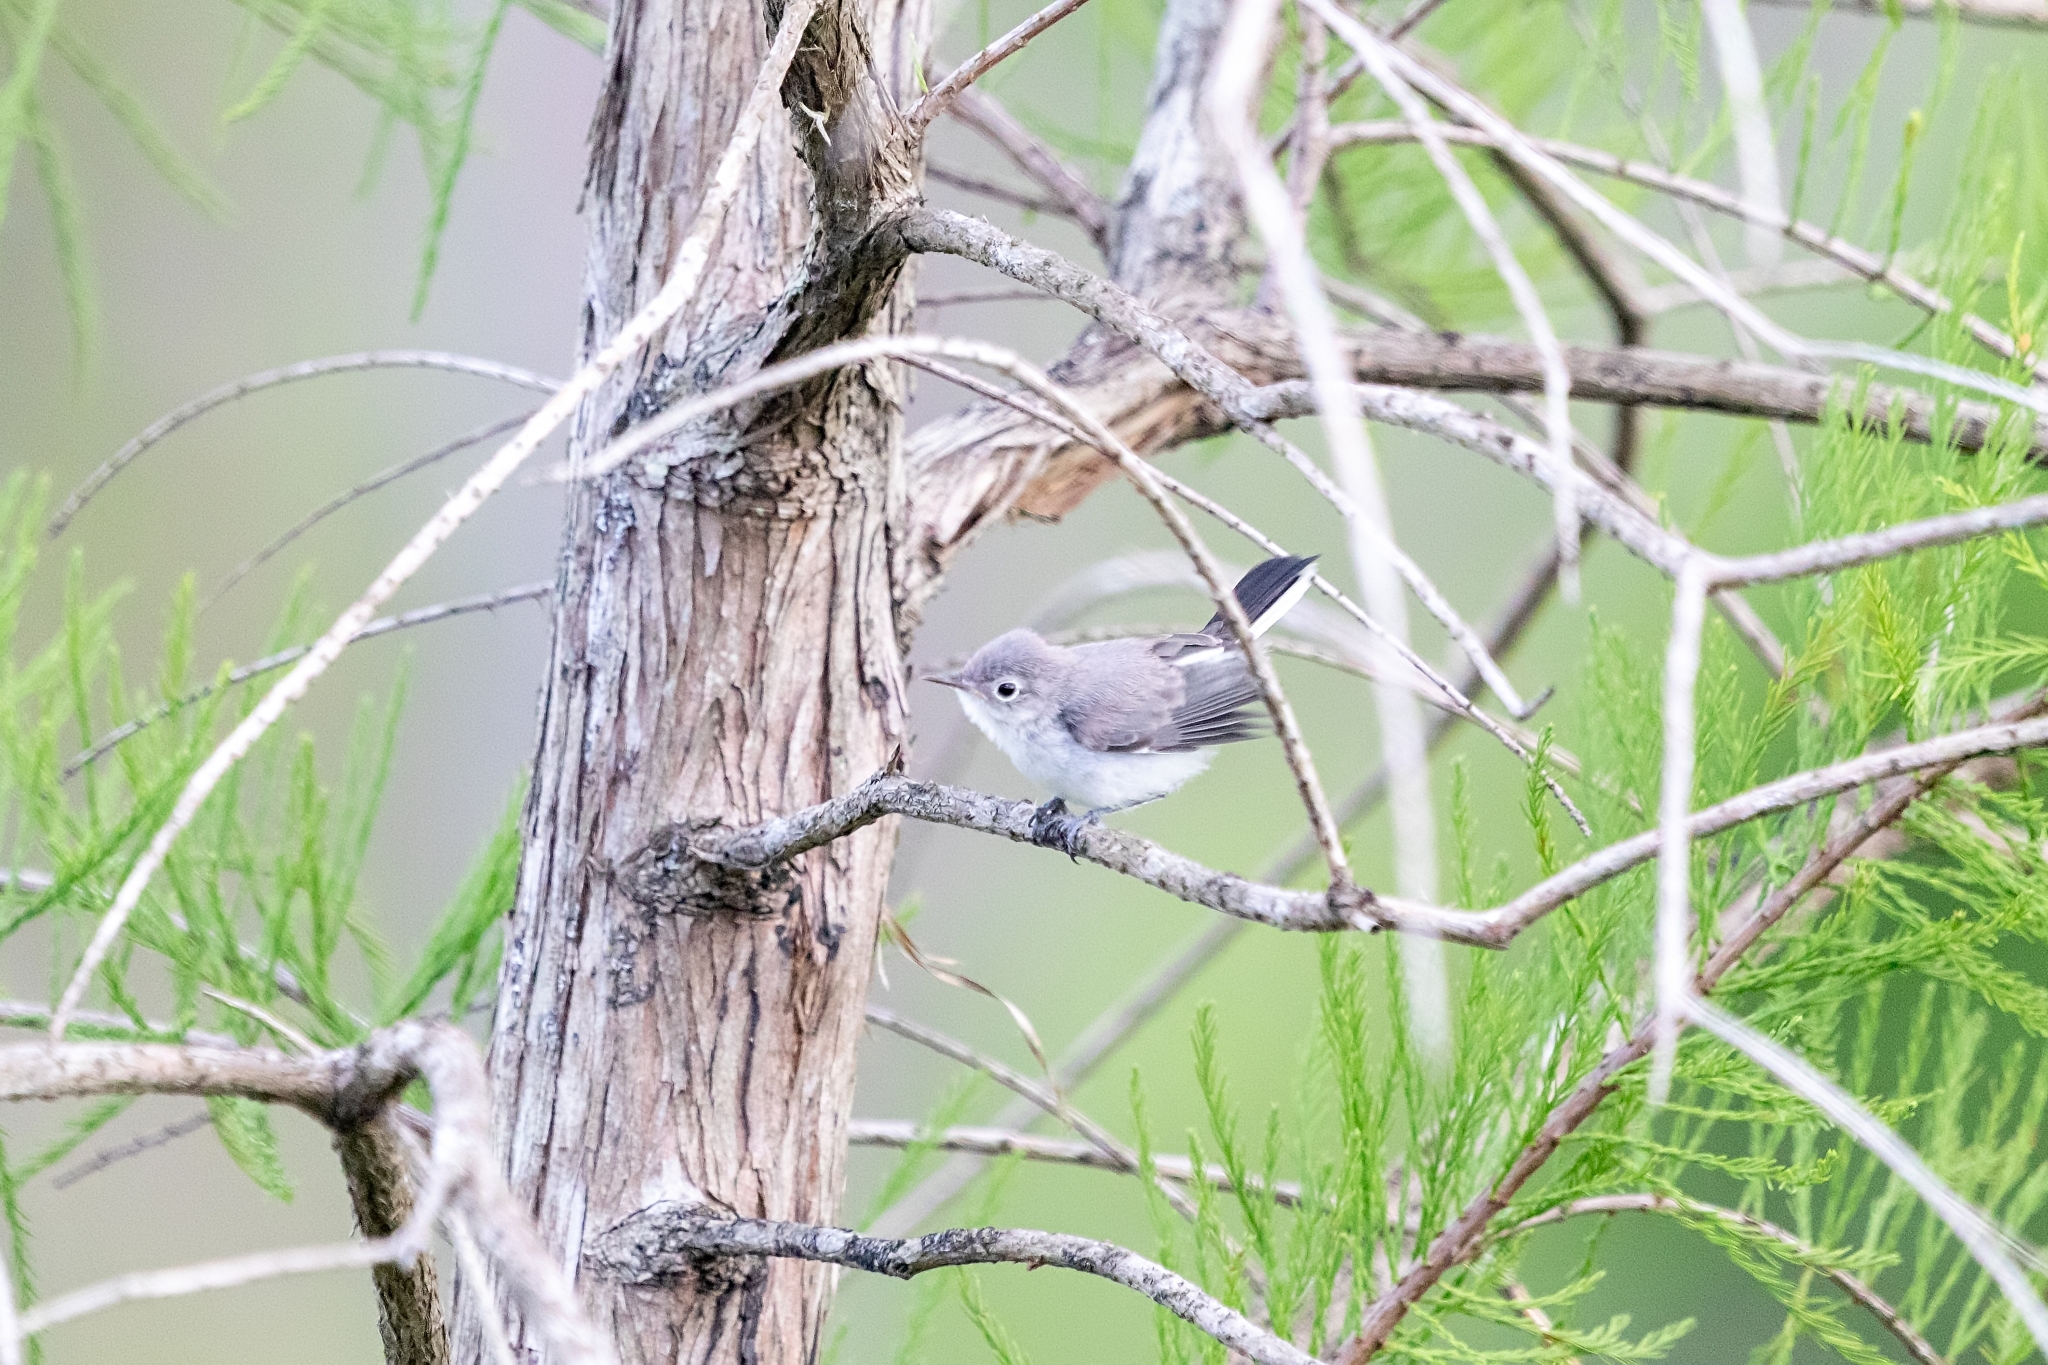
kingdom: Animalia
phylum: Chordata
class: Aves
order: Passeriformes
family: Polioptilidae
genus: Polioptila
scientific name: Polioptila caerulea
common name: Blue-gray gnatcatcher
